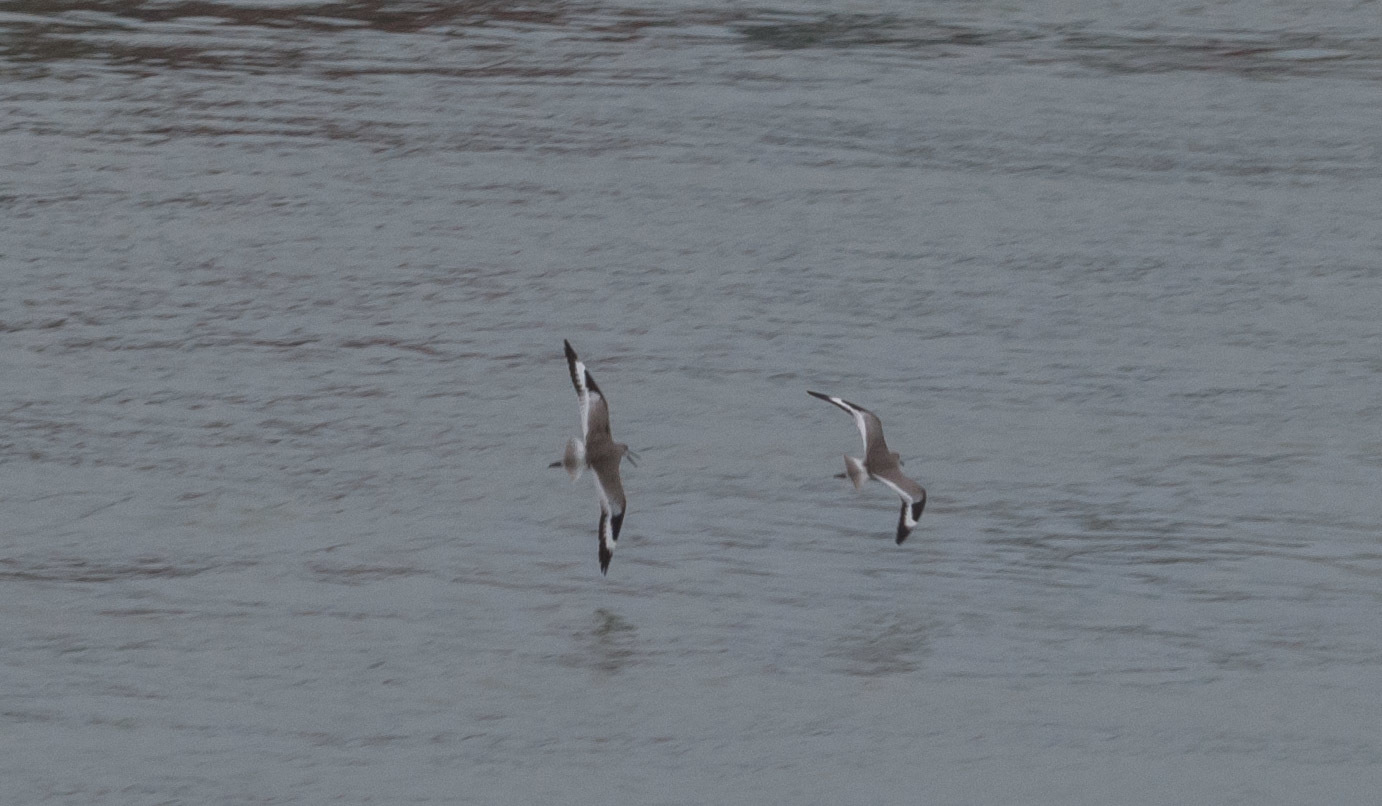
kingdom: Animalia
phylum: Chordata
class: Aves
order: Charadriiformes
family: Scolopacidae
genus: Tringa
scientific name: Tringa semipalmata
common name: Willet
